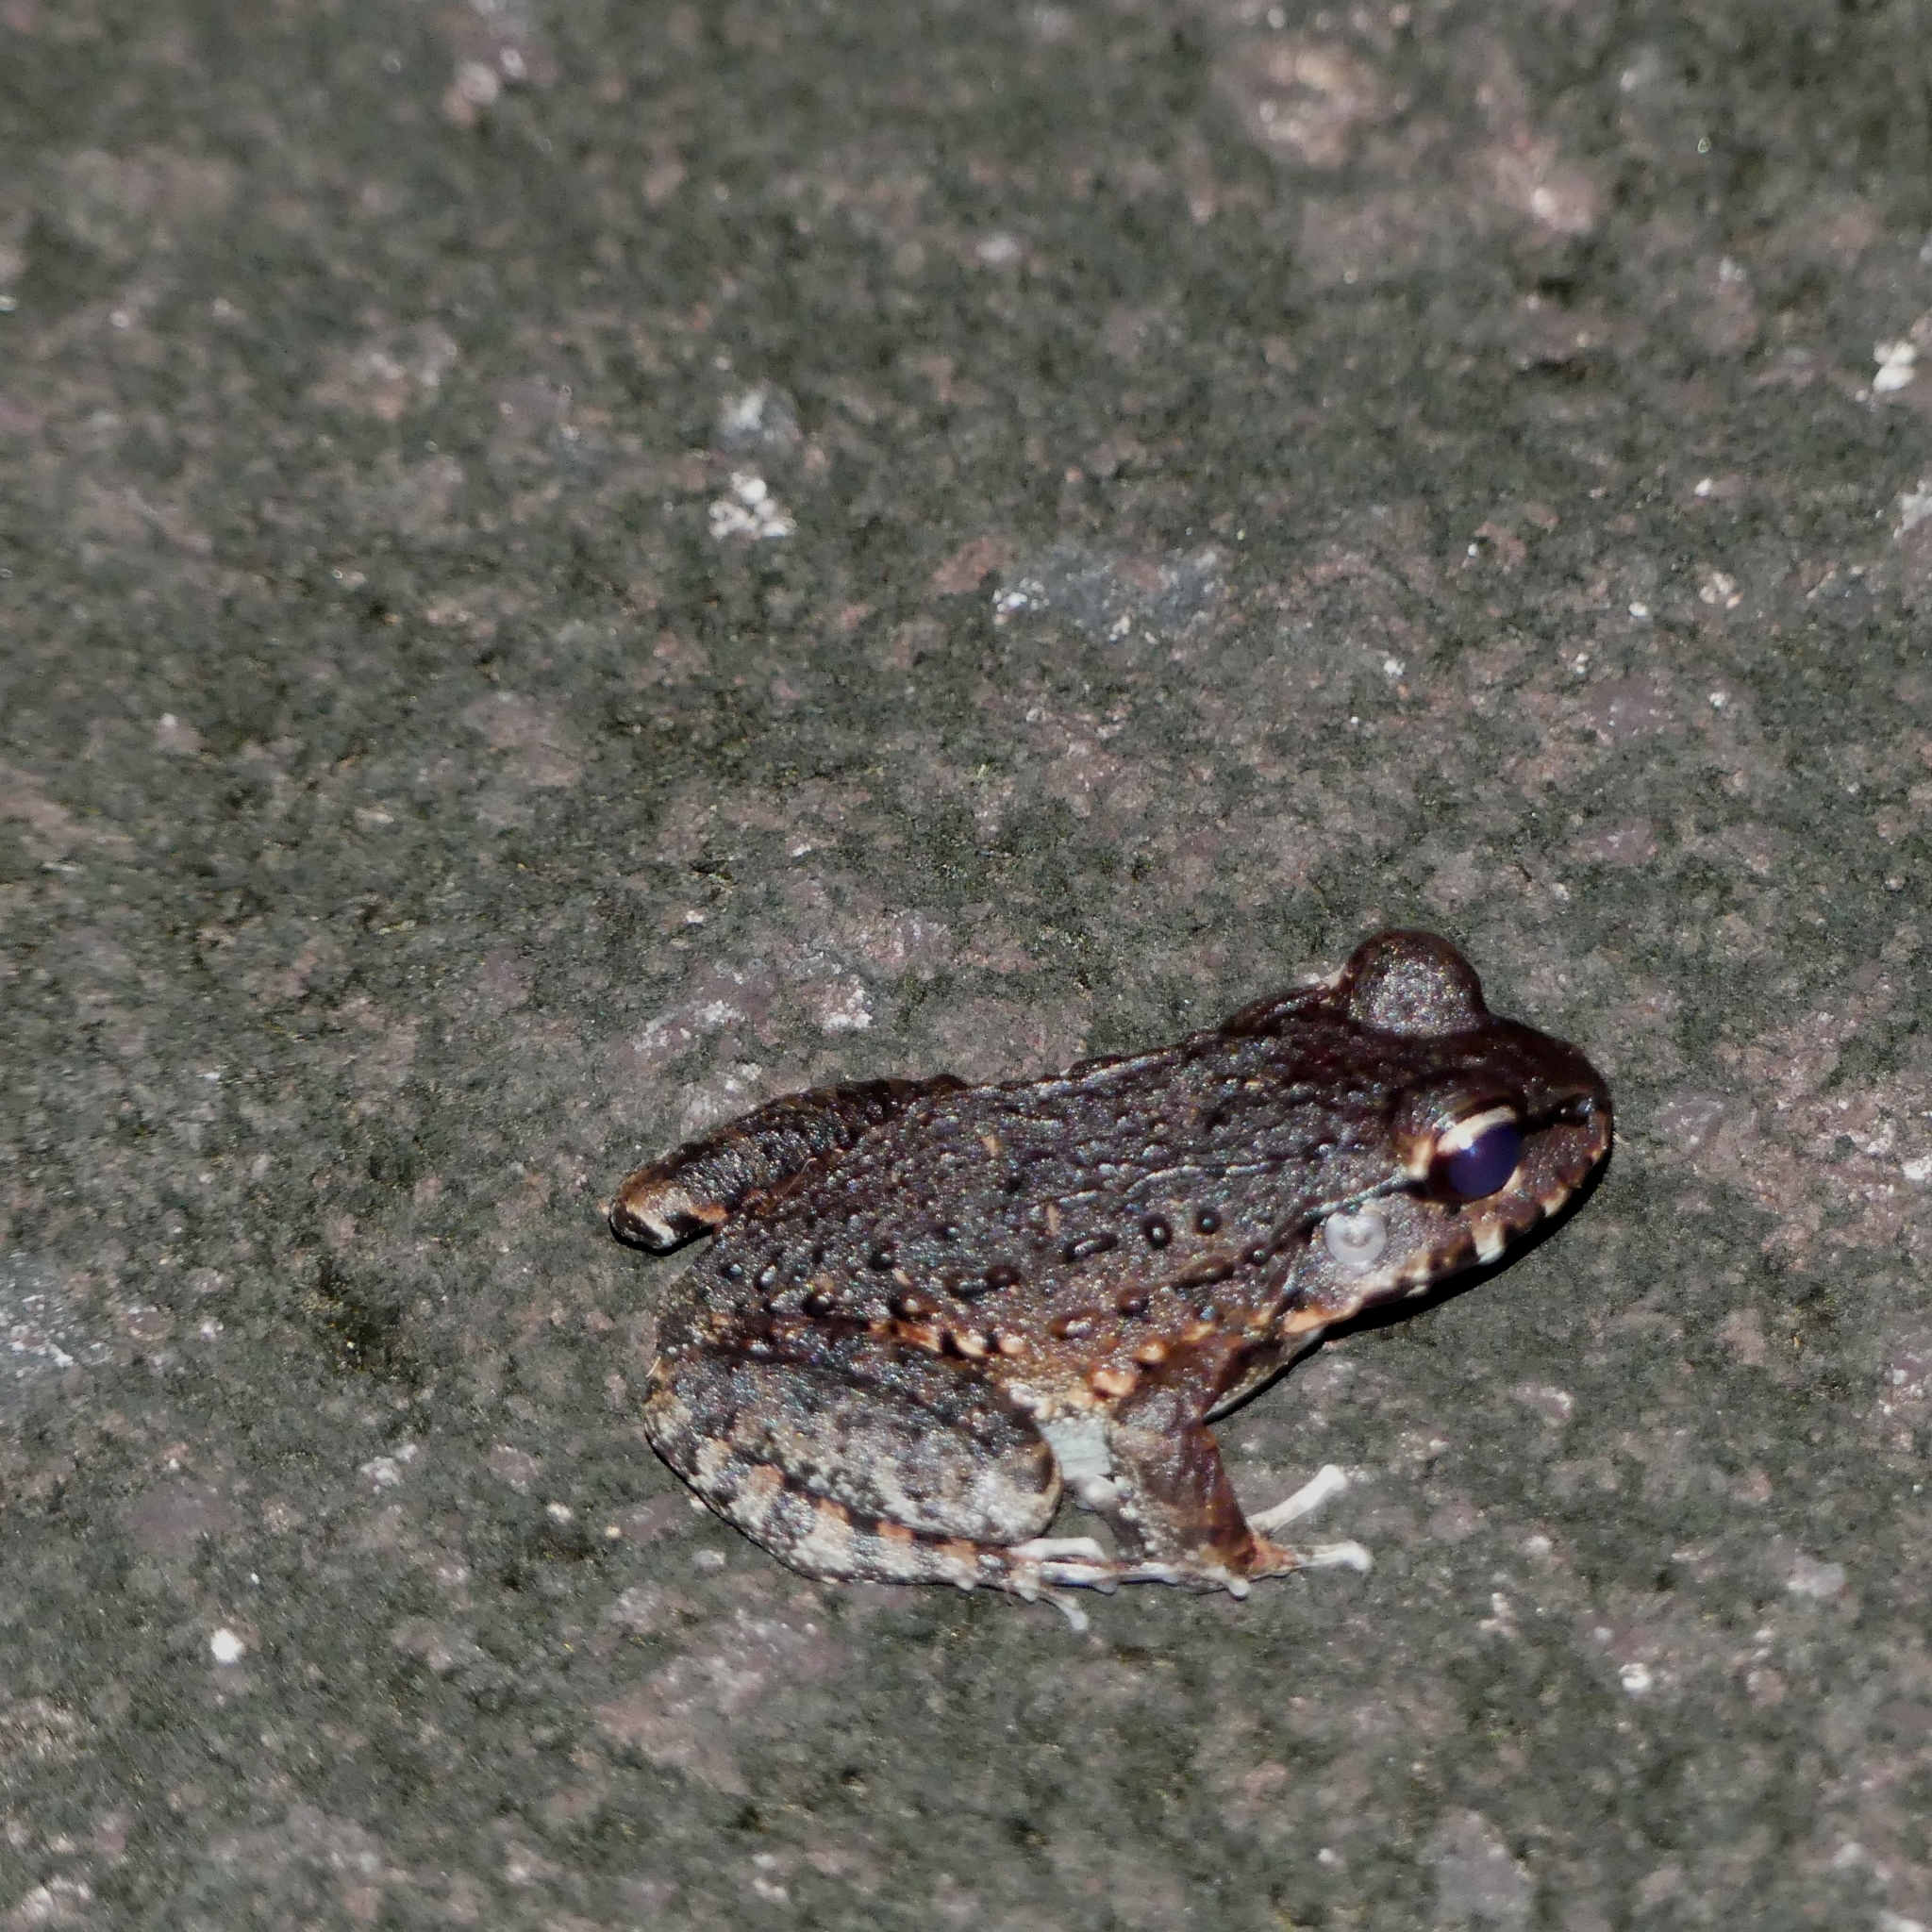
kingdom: Animalia
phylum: Chordata
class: Amphibia
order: Anura
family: Leptodactylidae
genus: Leptodactylus
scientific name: Leptodactylus myersi
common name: Myers' thin-toed frog
